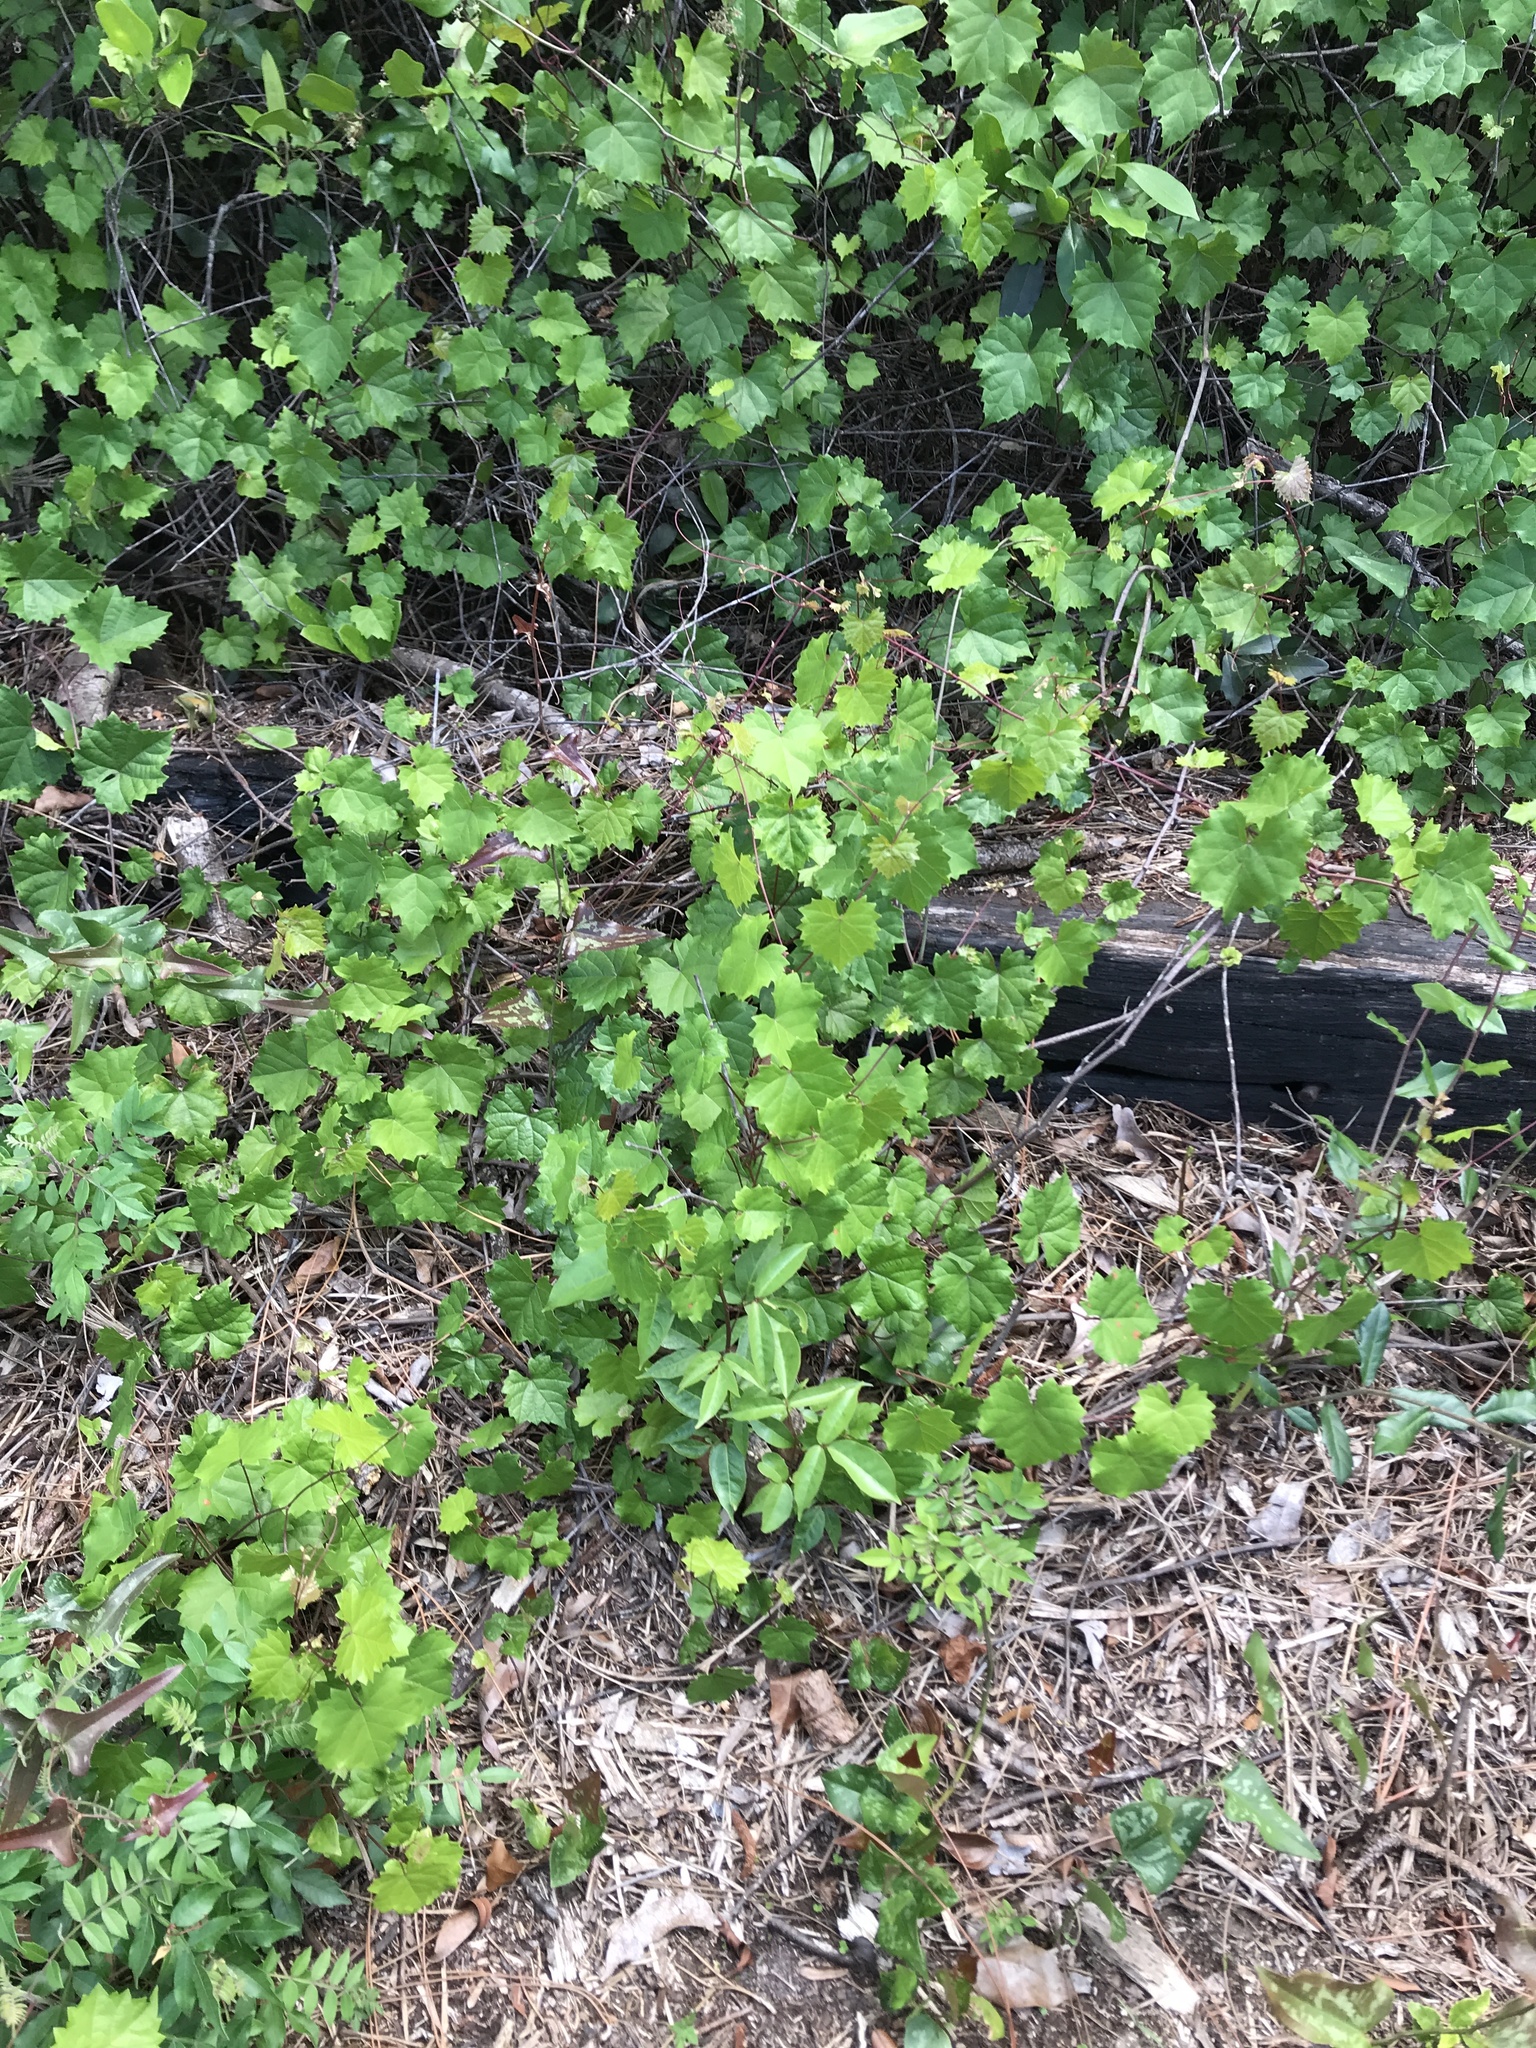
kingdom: Plantae
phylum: Tracheophyta
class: Magnoliopsida
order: Vitales
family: Vitaceae
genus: Vitis
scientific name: Vitis rotundifolia
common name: Muscadine grape
